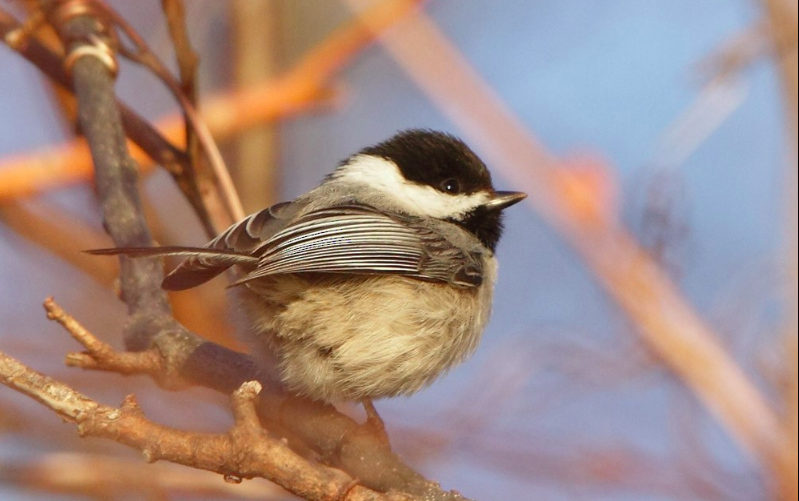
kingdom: Animalia
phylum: Chordata
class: Aves
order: Passeriformes
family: Paridae
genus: Poecile
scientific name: Poecile carolinensis
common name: Carolina chickadee
